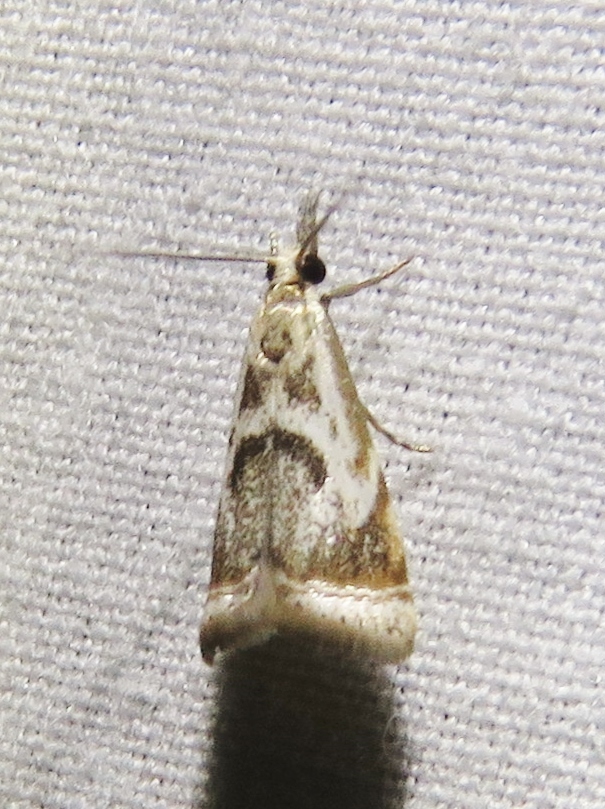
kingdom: Animalia
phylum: Arthropoda
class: Insecta
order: Lepidoptera
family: Crambidae
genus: Microcrambus
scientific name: Microcrambus elegans
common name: Elegant grass-veneer
